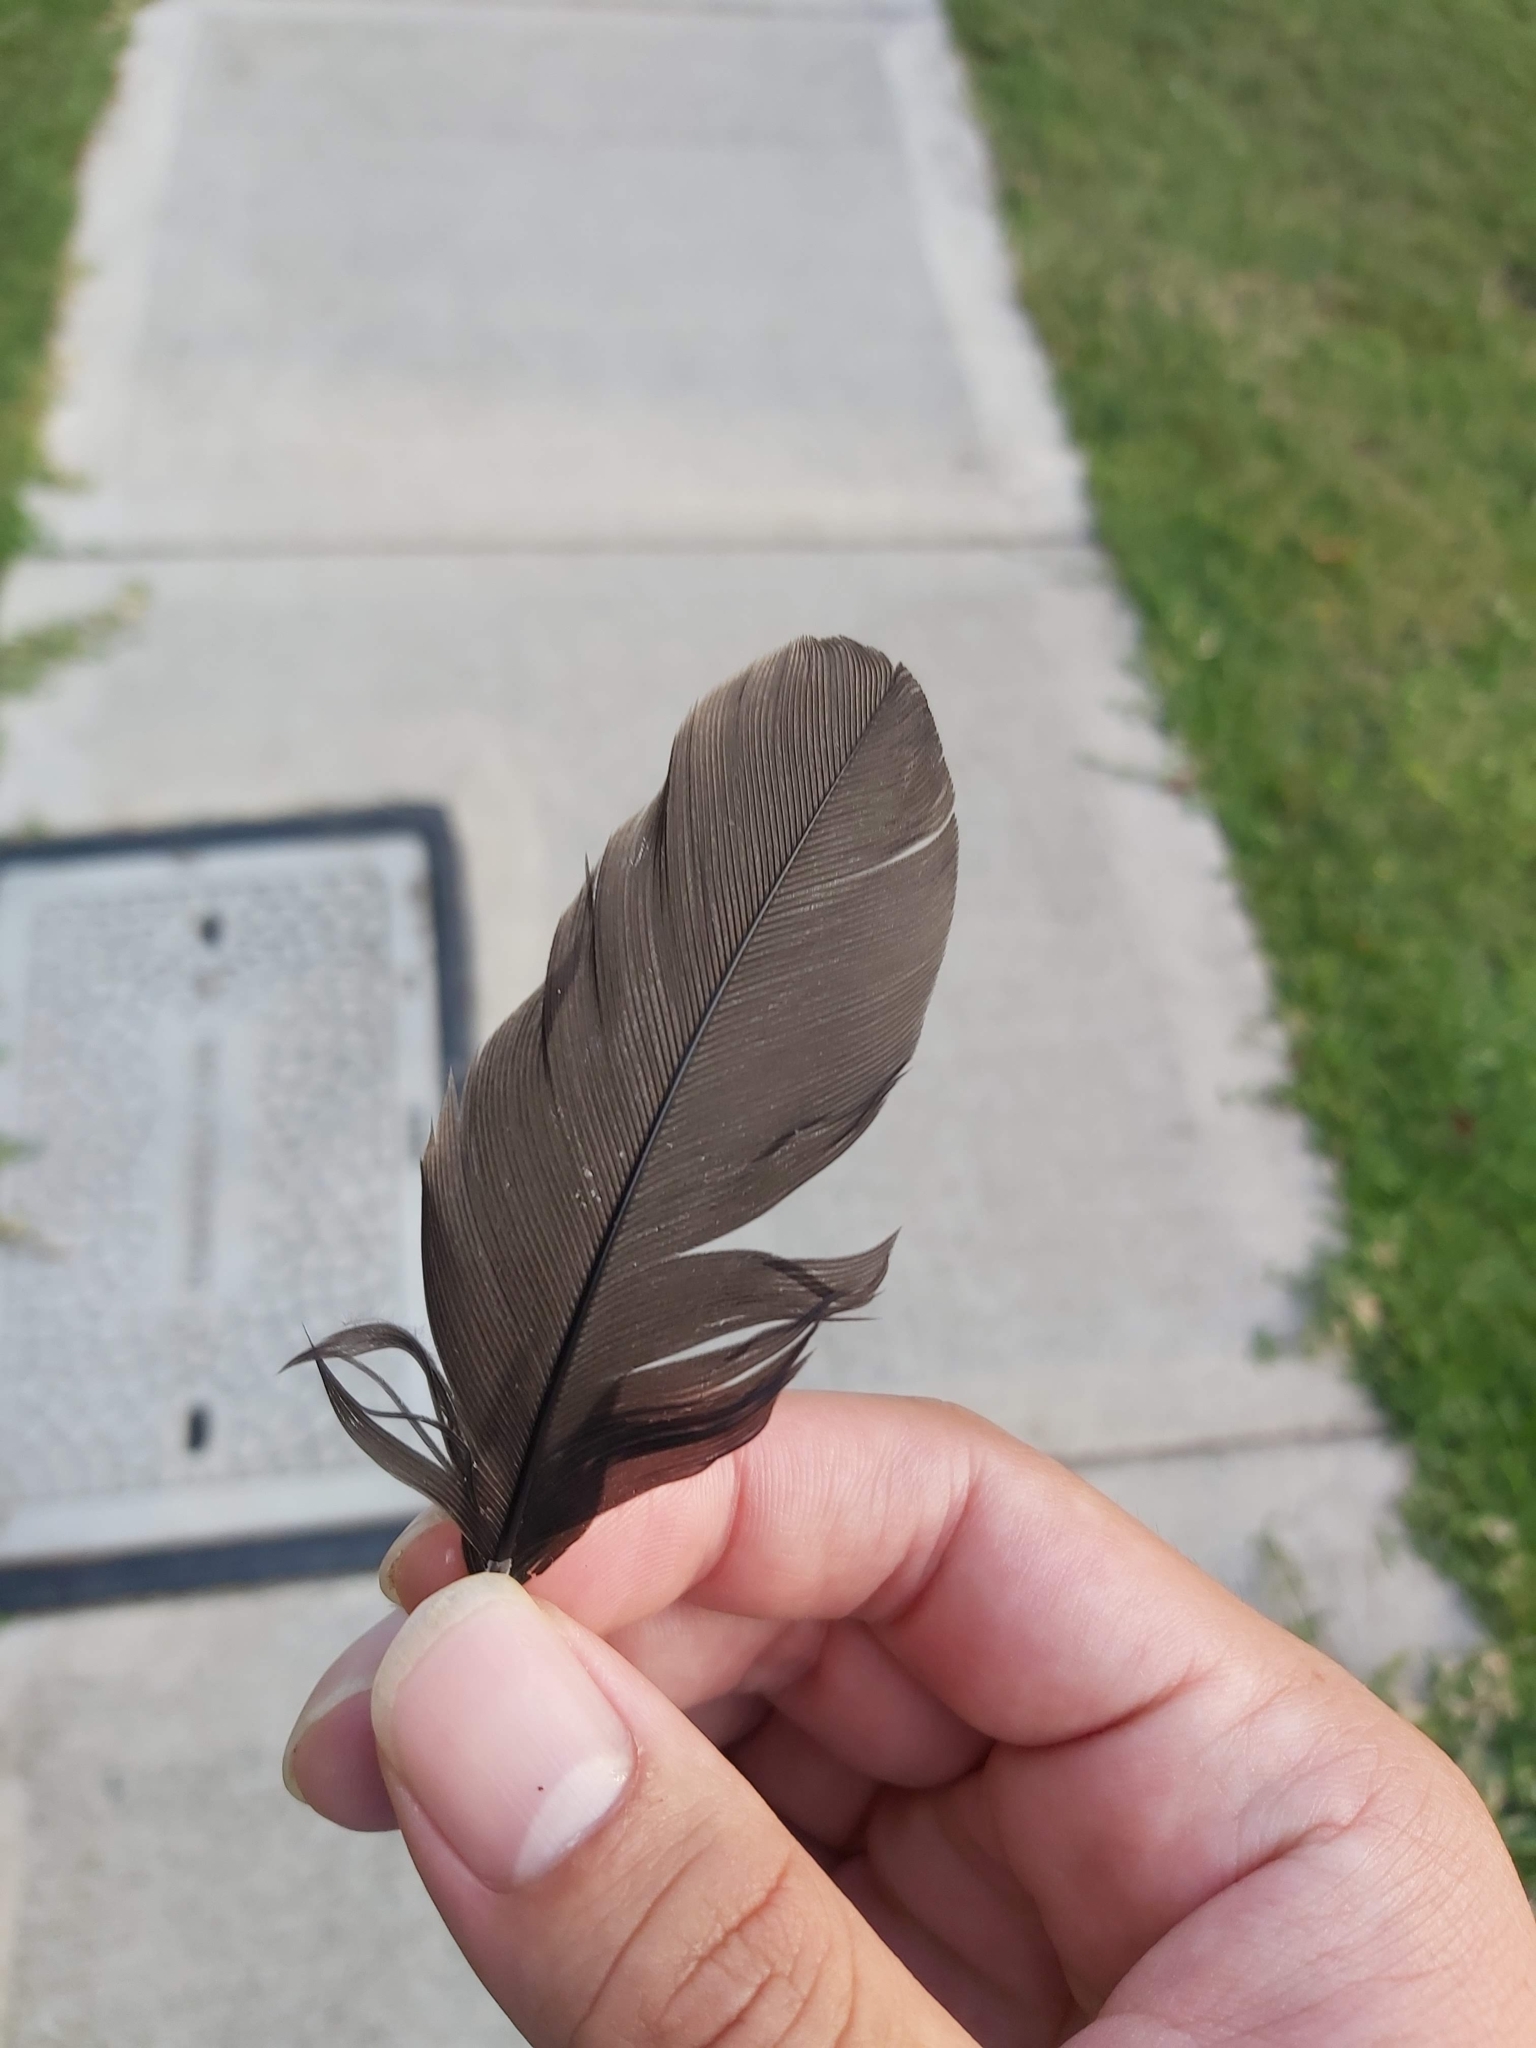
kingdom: Animalia
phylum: Chordata
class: Aves
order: Galliformes
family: Megapodiidae
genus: Alectura
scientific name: Alectura lathami
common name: Australian brushturkey
